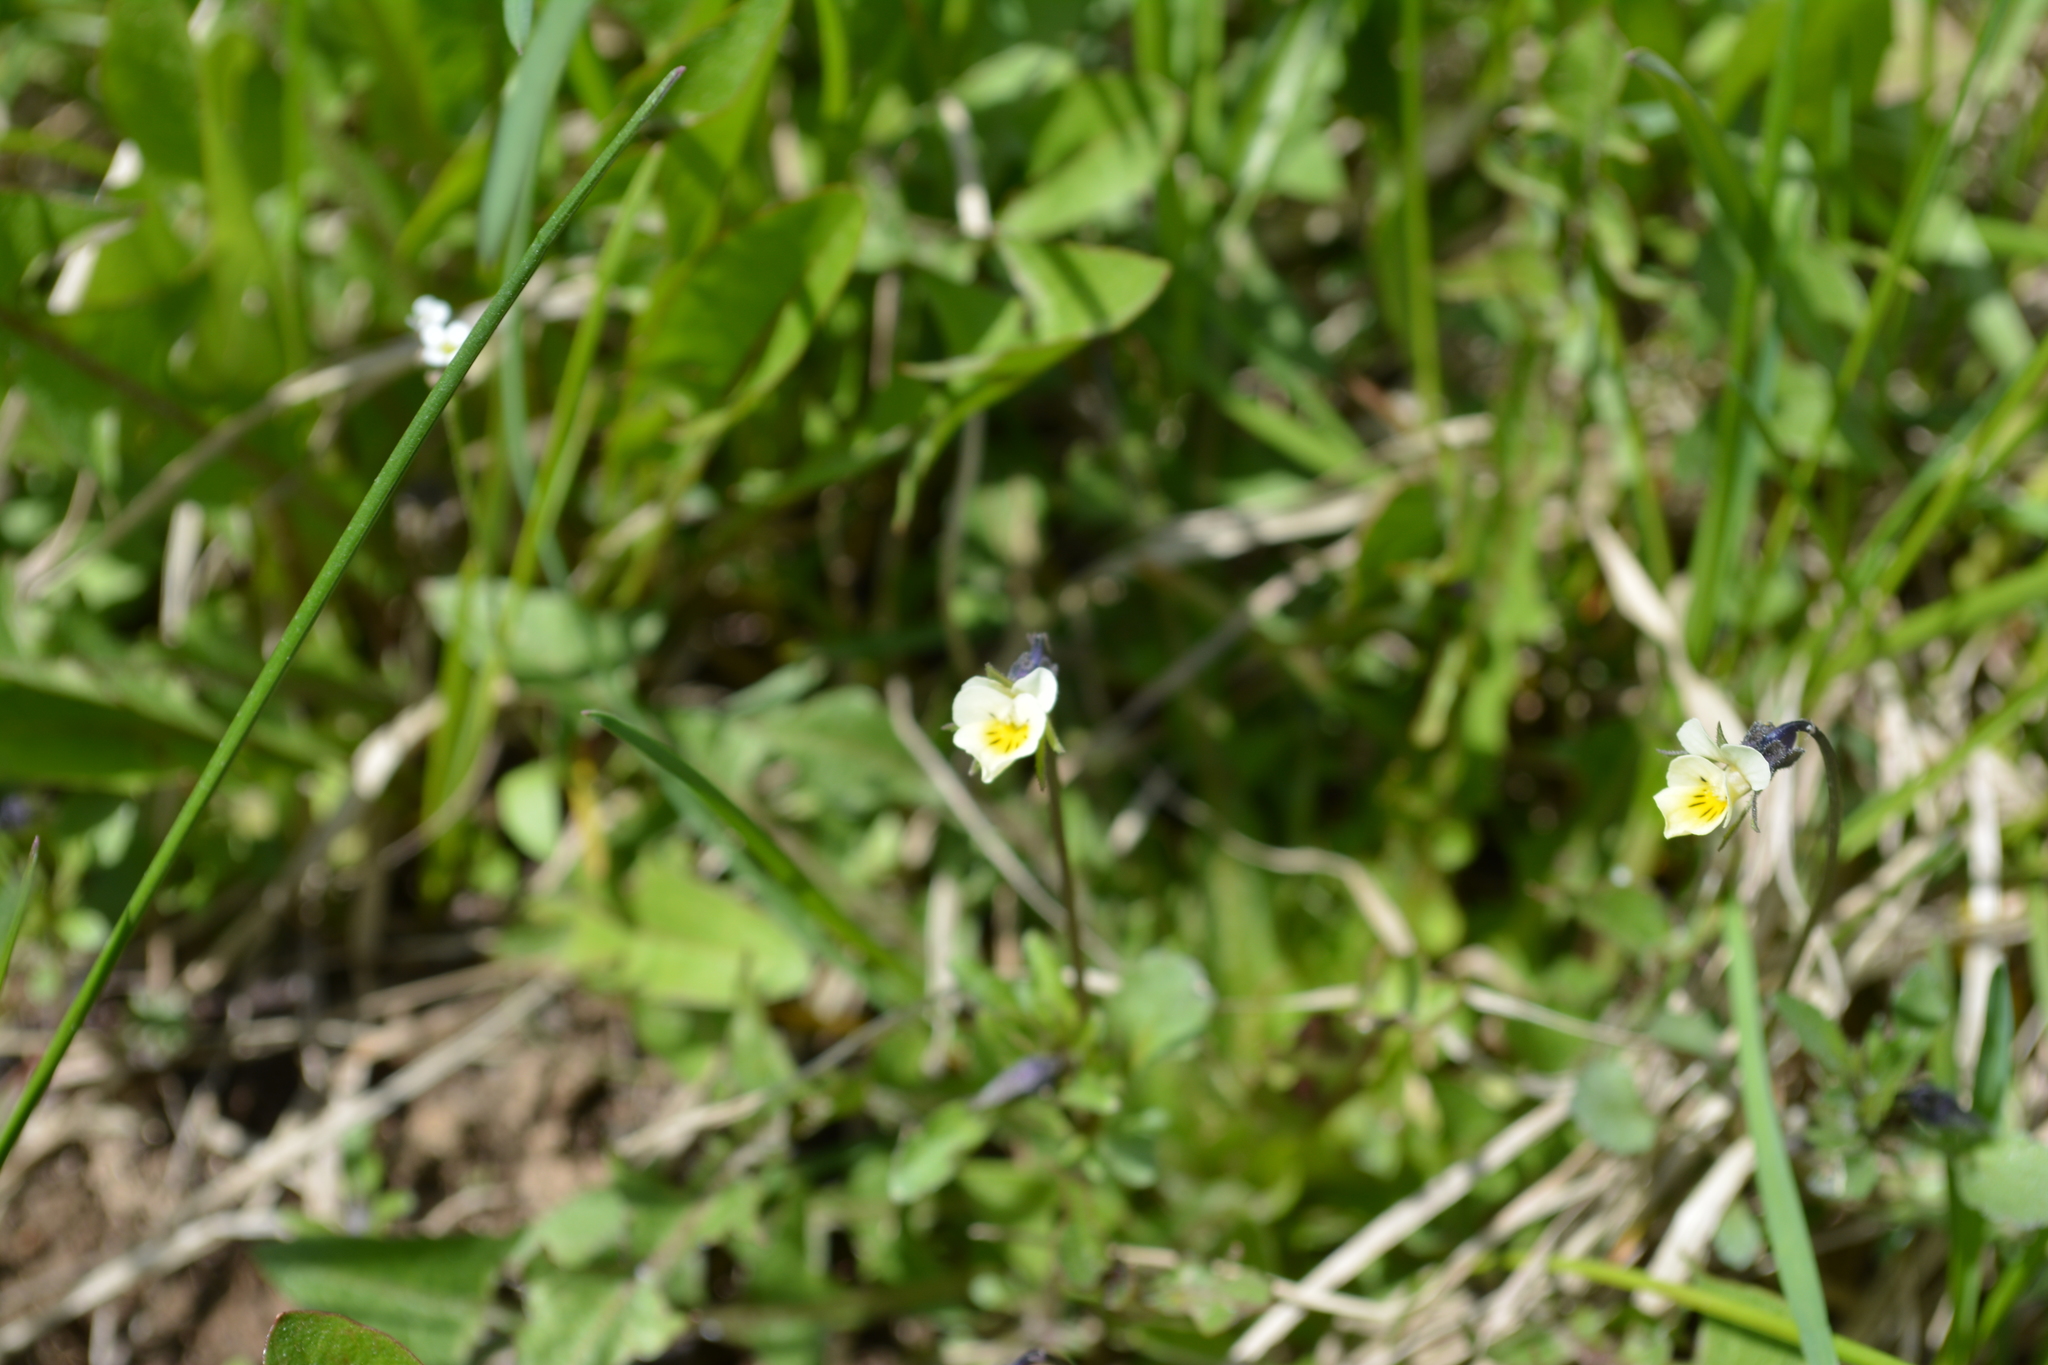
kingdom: Plantae
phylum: Tracheophyta
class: Magnoliopsida
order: Malpighiales
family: Violaceae
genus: Viola
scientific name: Viola arvensis
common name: Field pansy
